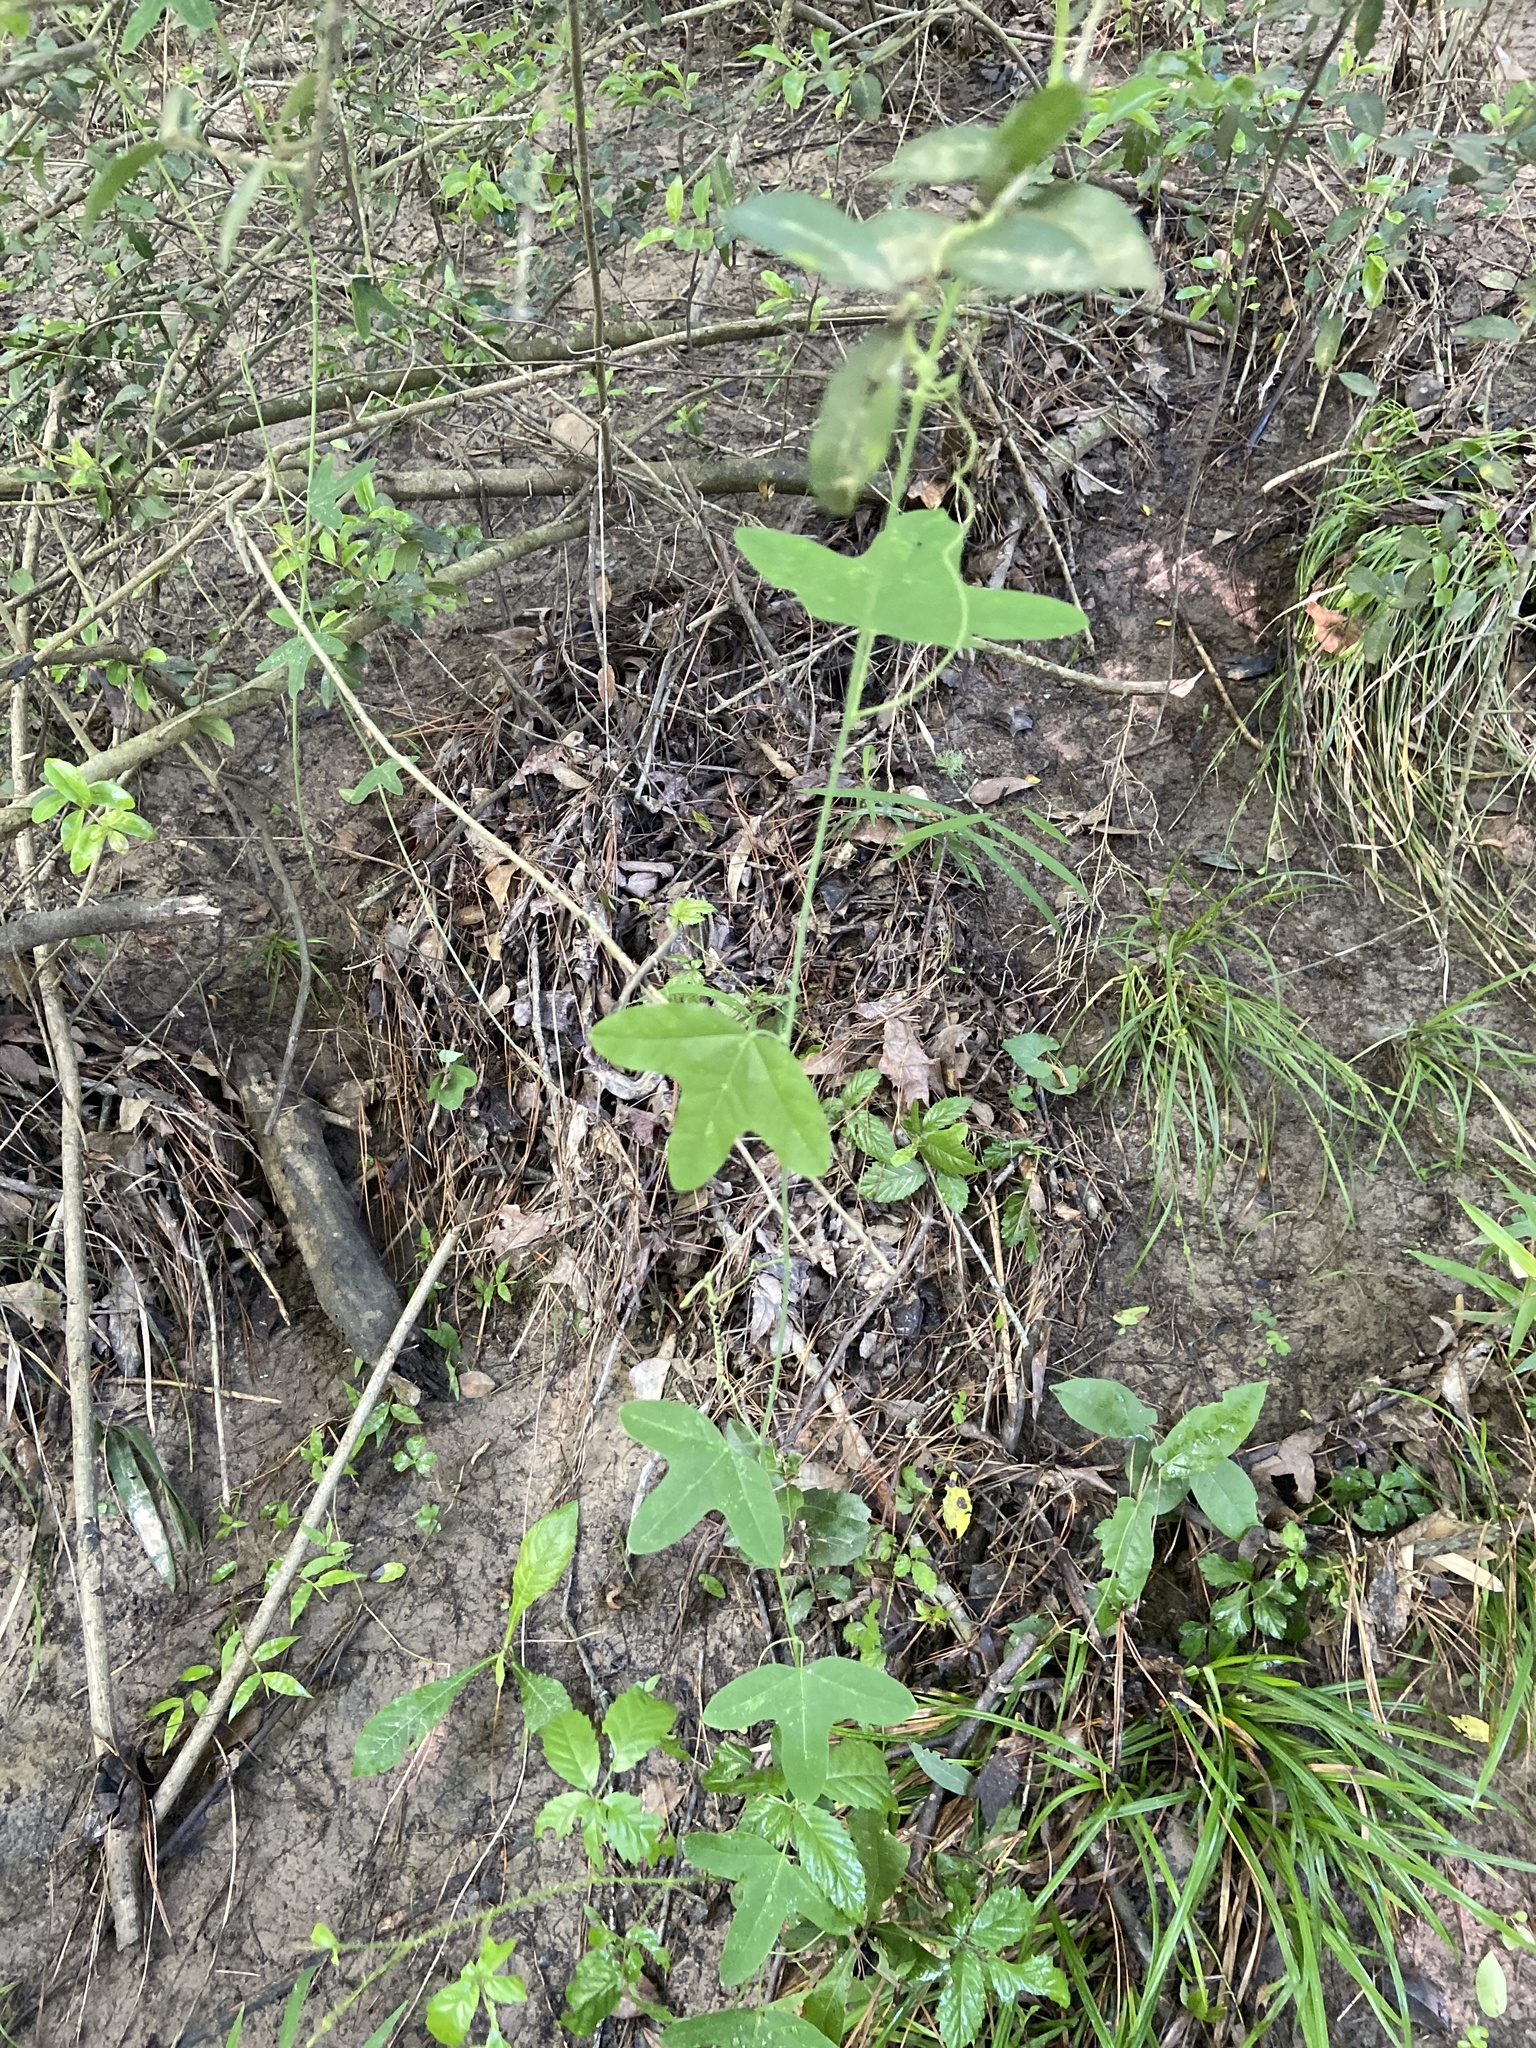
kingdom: Plantae
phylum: Tracheophyta
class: Magnoliopsida
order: Malpighiales
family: Passifloraceae
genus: Passiflora
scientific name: Passiflora lutea
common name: Yellow passionflower
